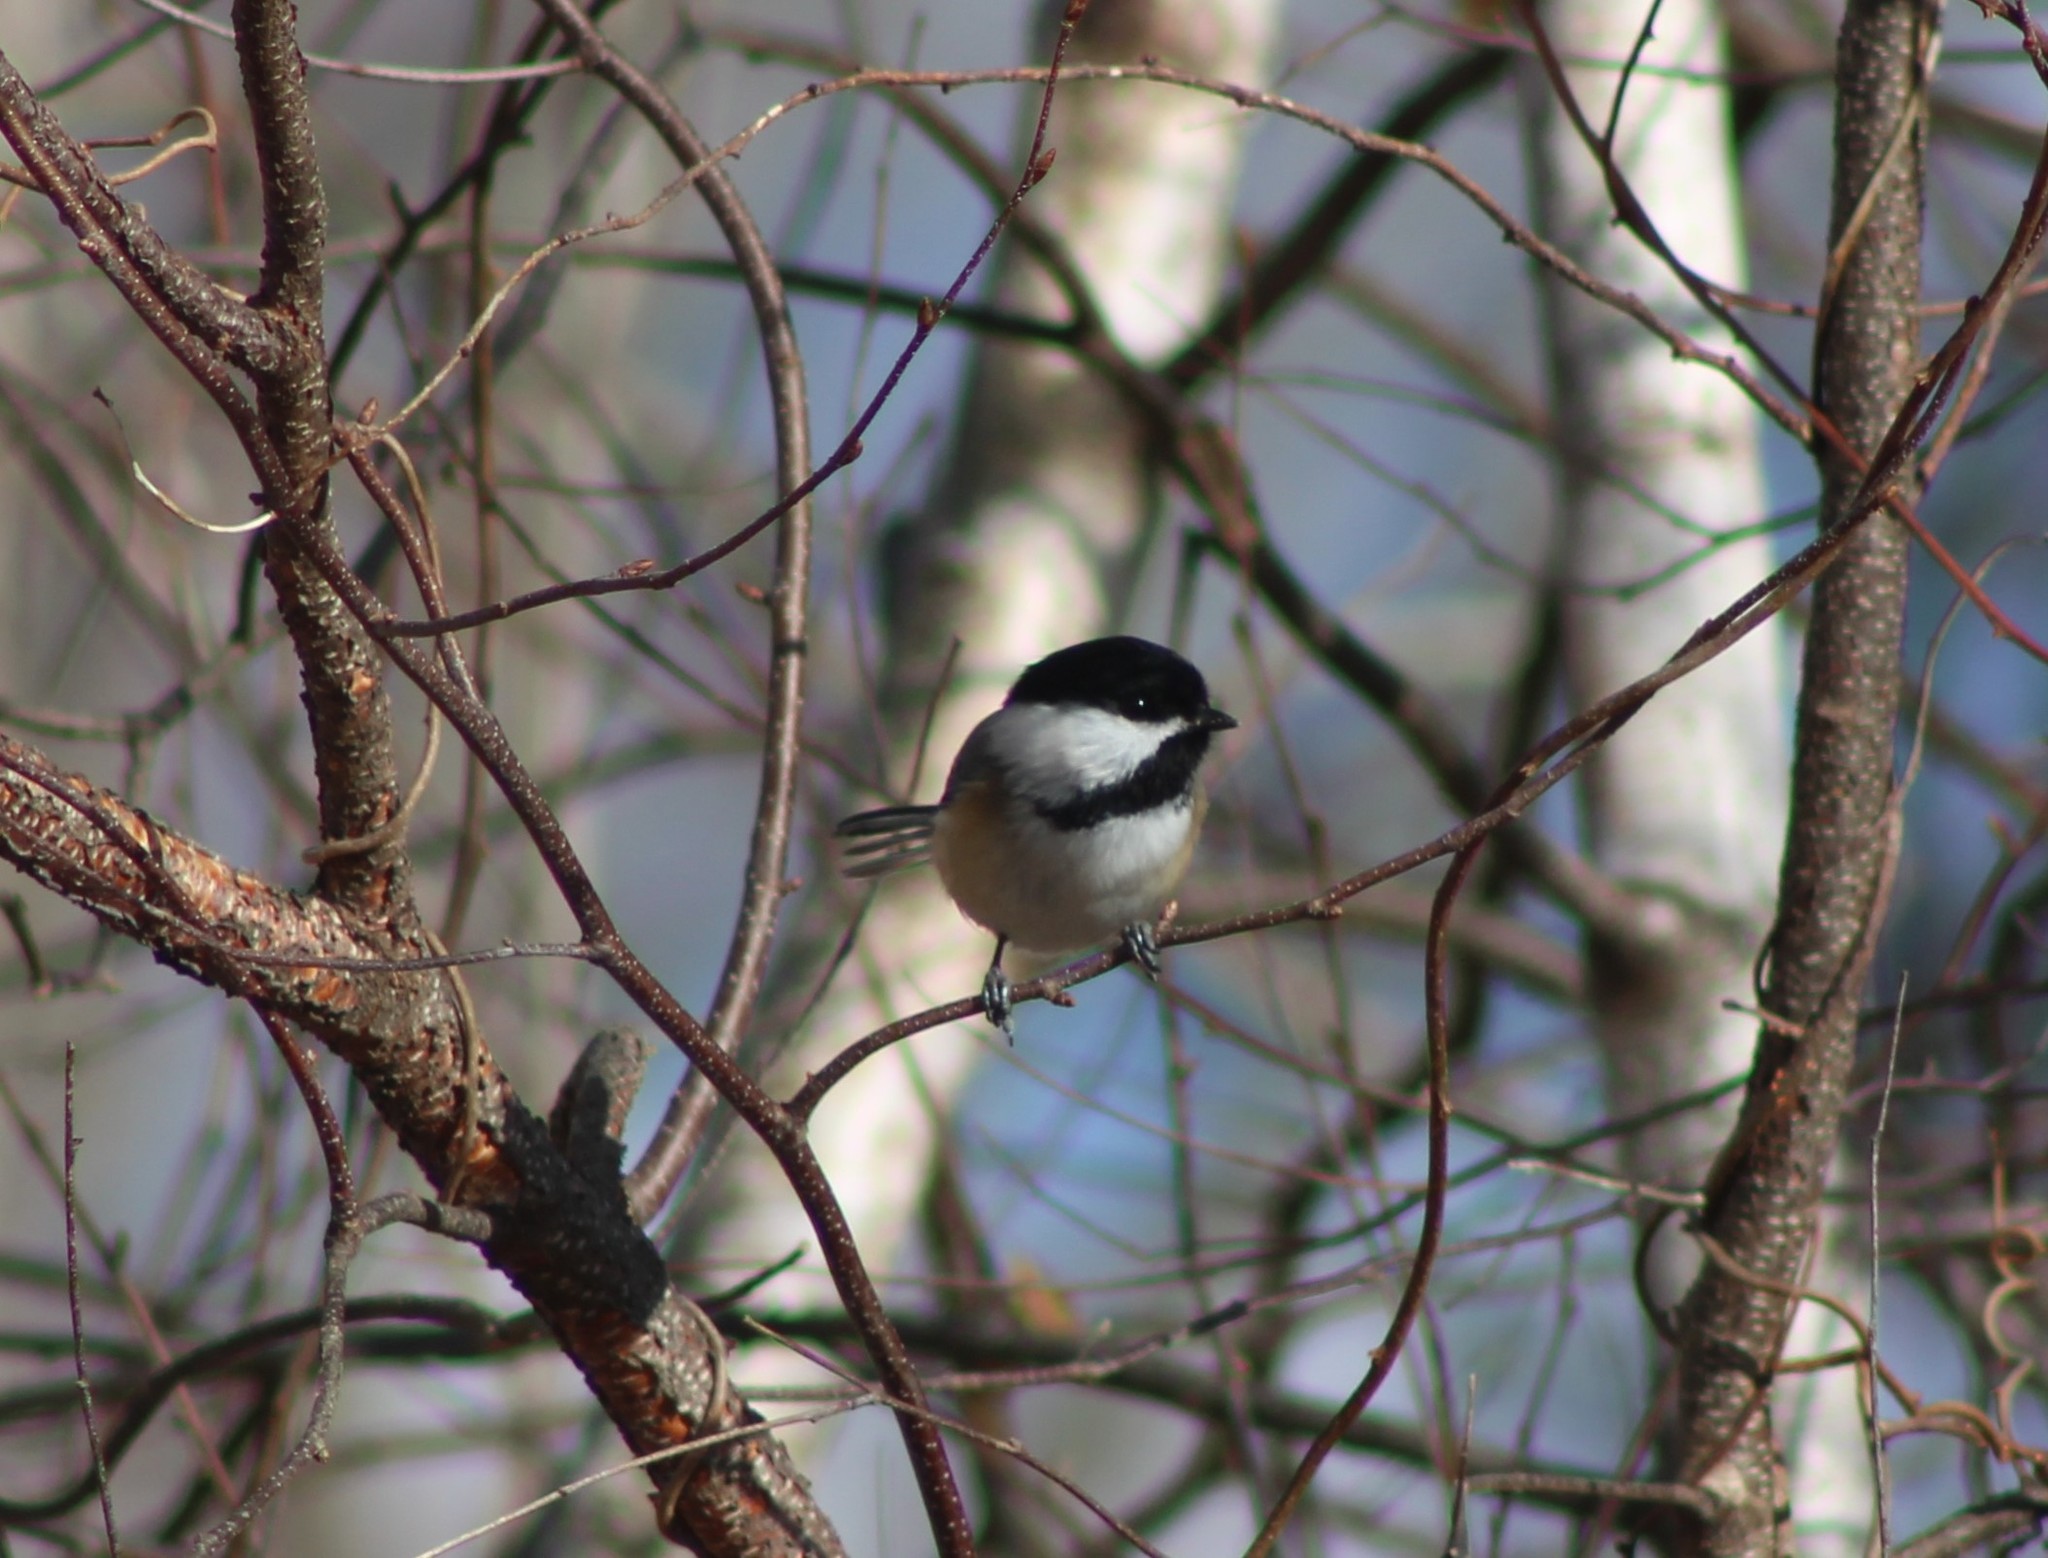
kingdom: Animalia
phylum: Chordata
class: Aves
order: Passeriformes
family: Paridae
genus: Poecile
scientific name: Poecile atricapillus
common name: Black-capped chickadee
